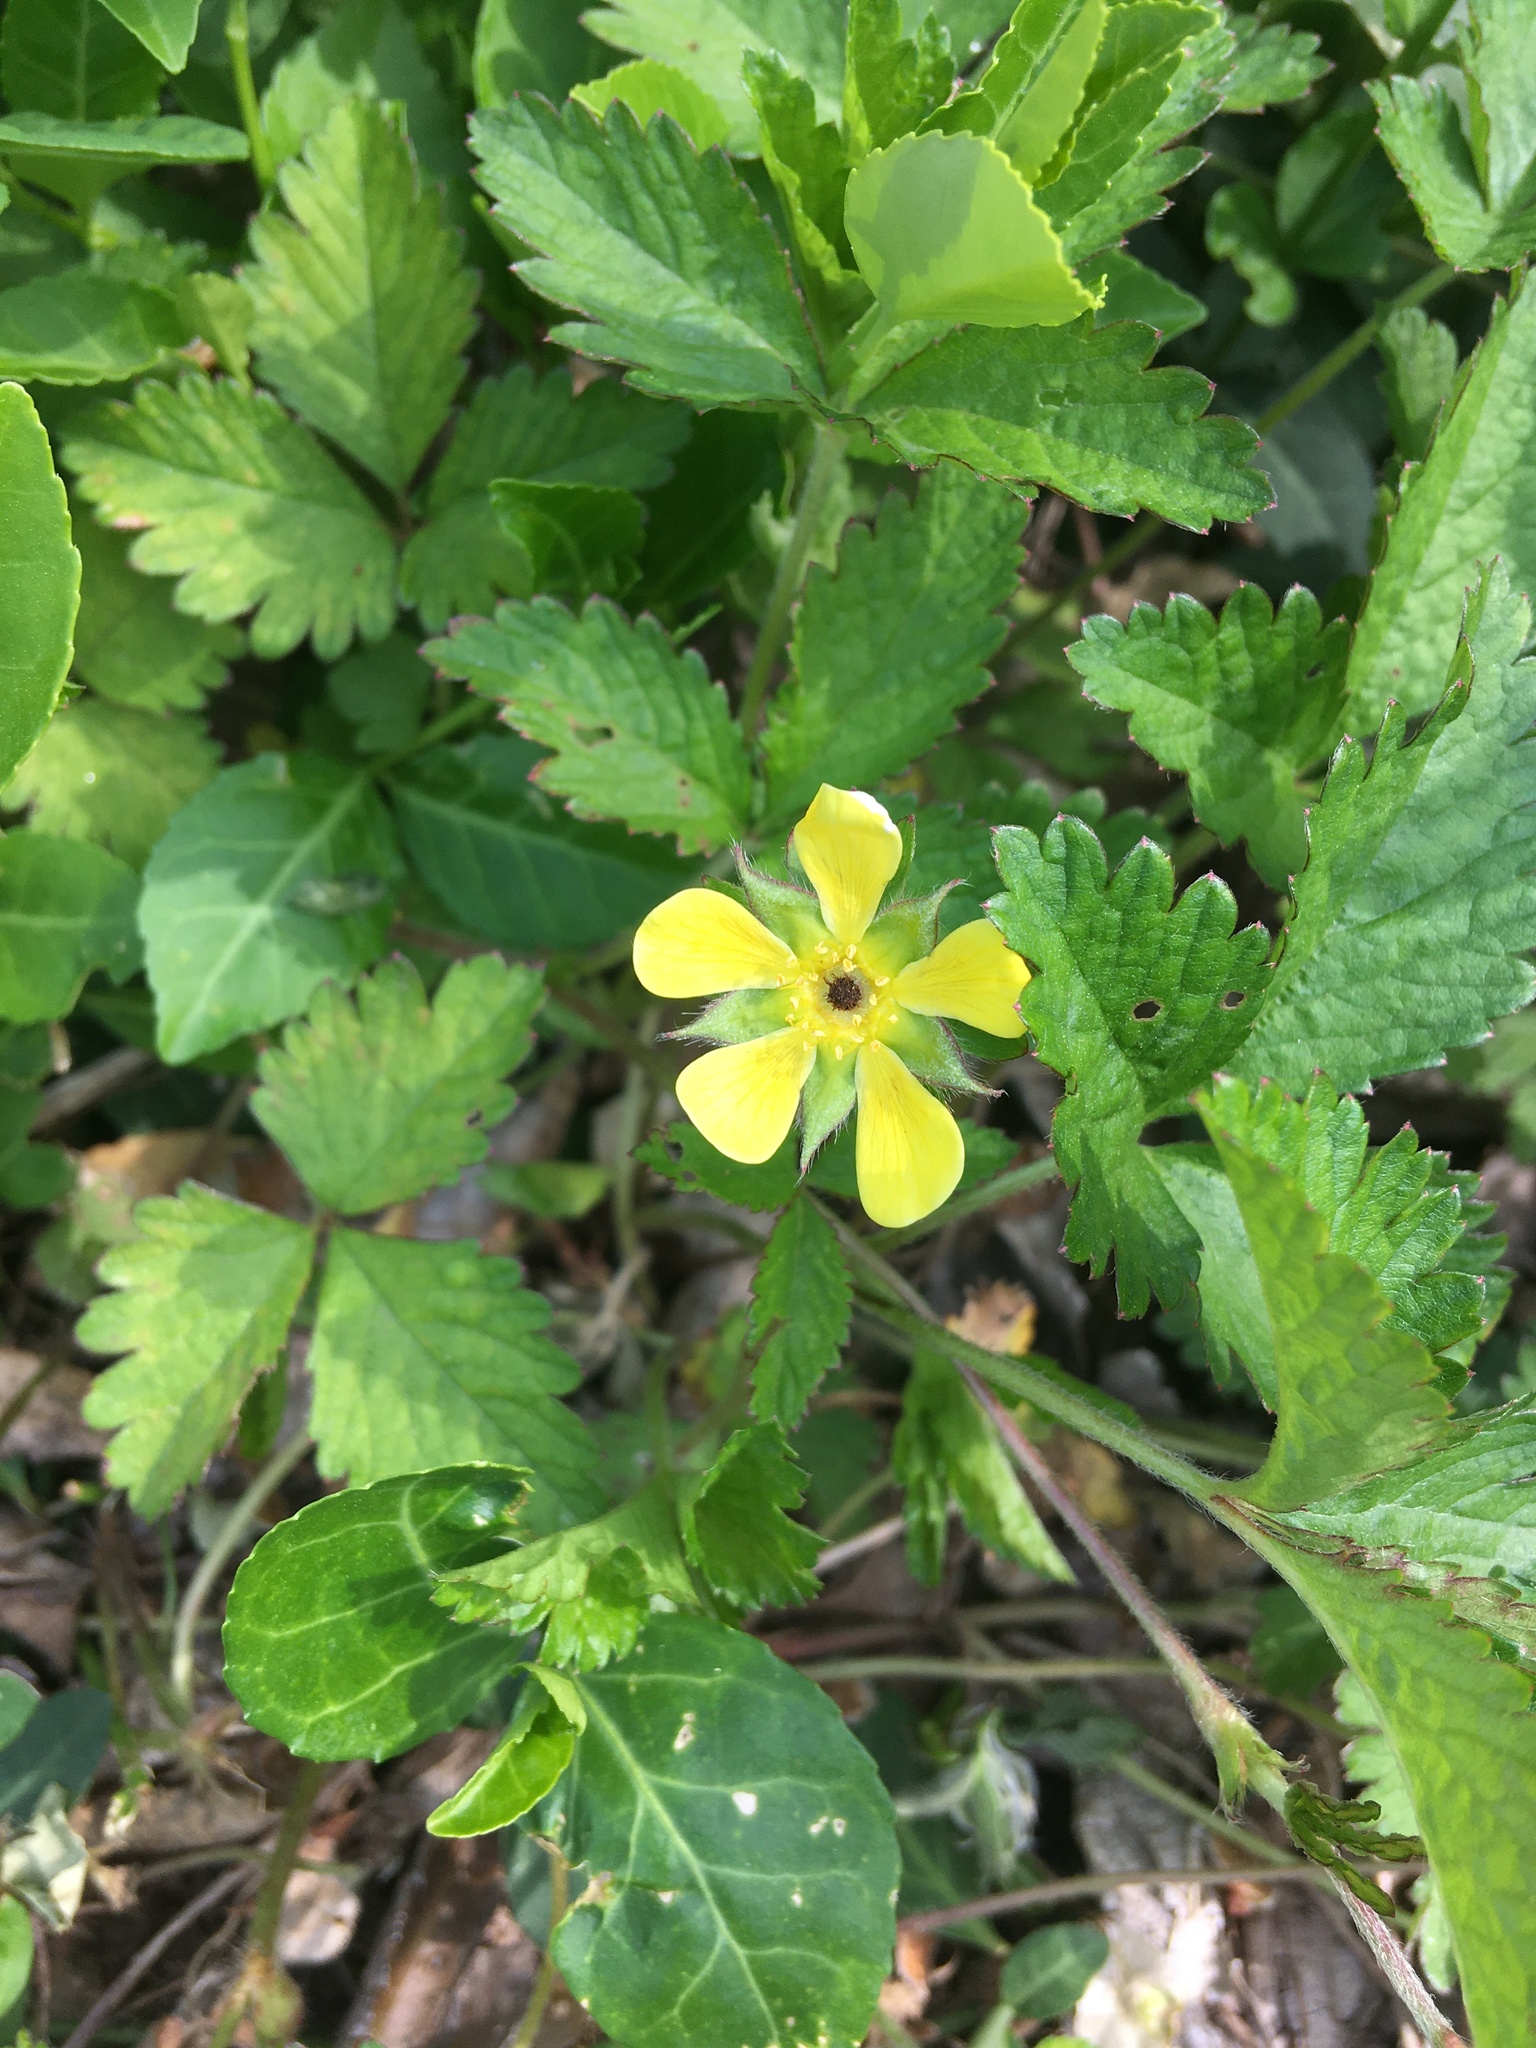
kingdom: Plantae
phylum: Tracheophyta
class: Magnoliopsida
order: Rosales
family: Rosaceae
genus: Potentilla
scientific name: Potentilla indica
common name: Yellow-flowered strawberry
